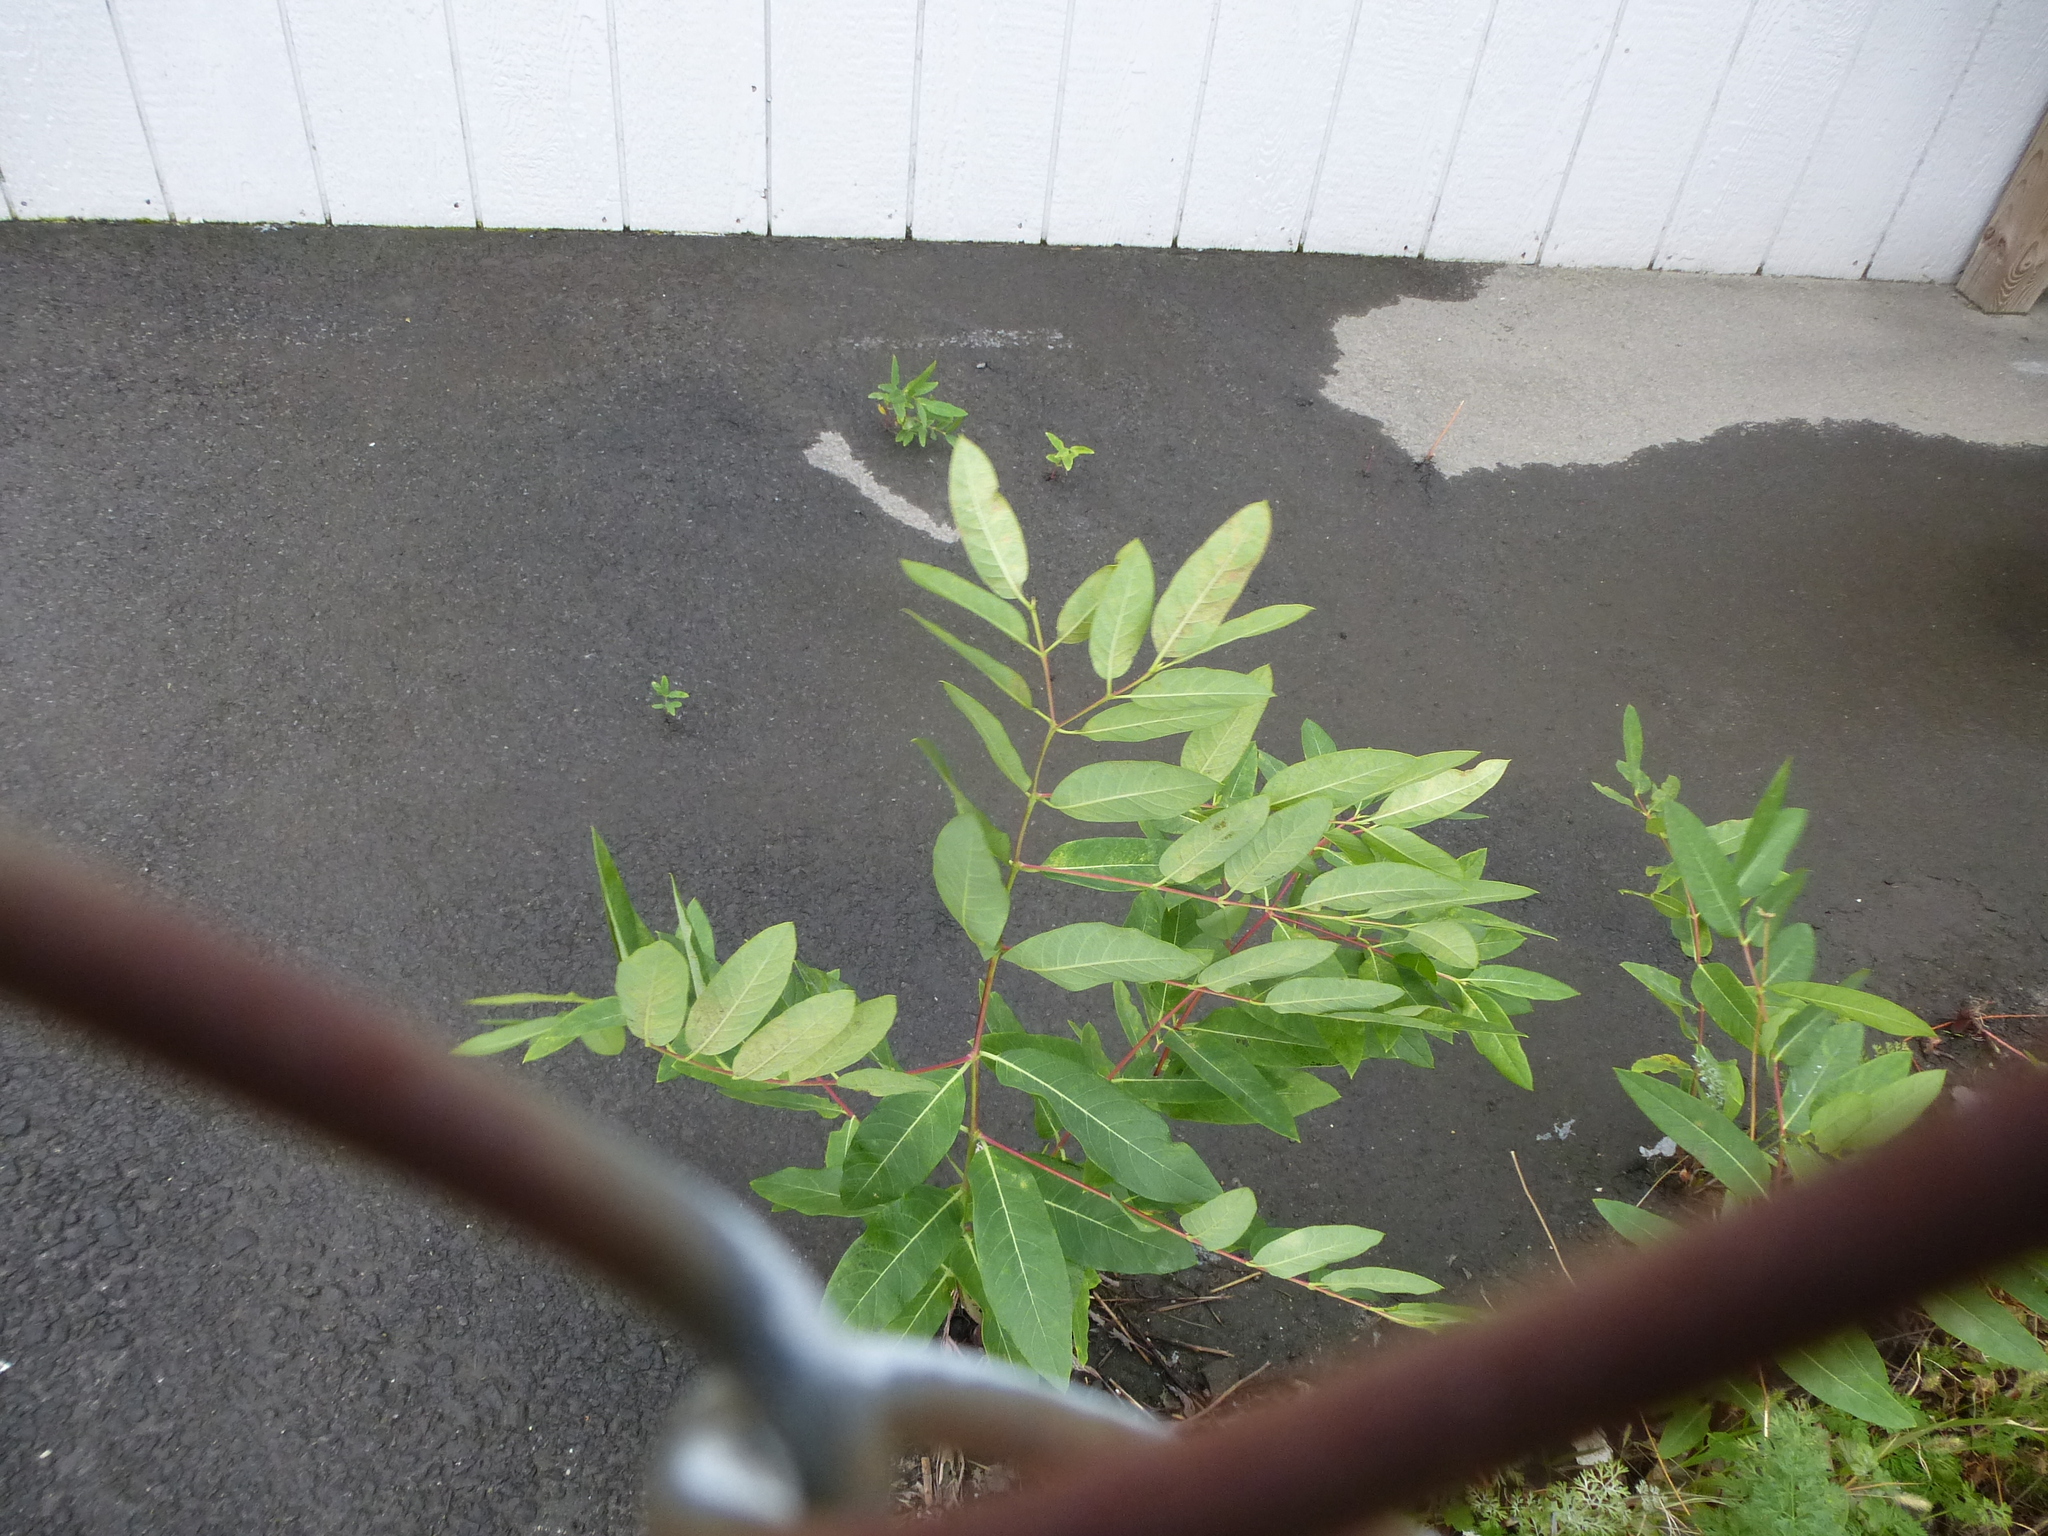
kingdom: Plantae
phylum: Tracheophyta
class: Magnoliopsida
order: Gentianales
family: Apocynaceae
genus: Apocynum
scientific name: Apocynum cannabinum
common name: Hemp dogbane
